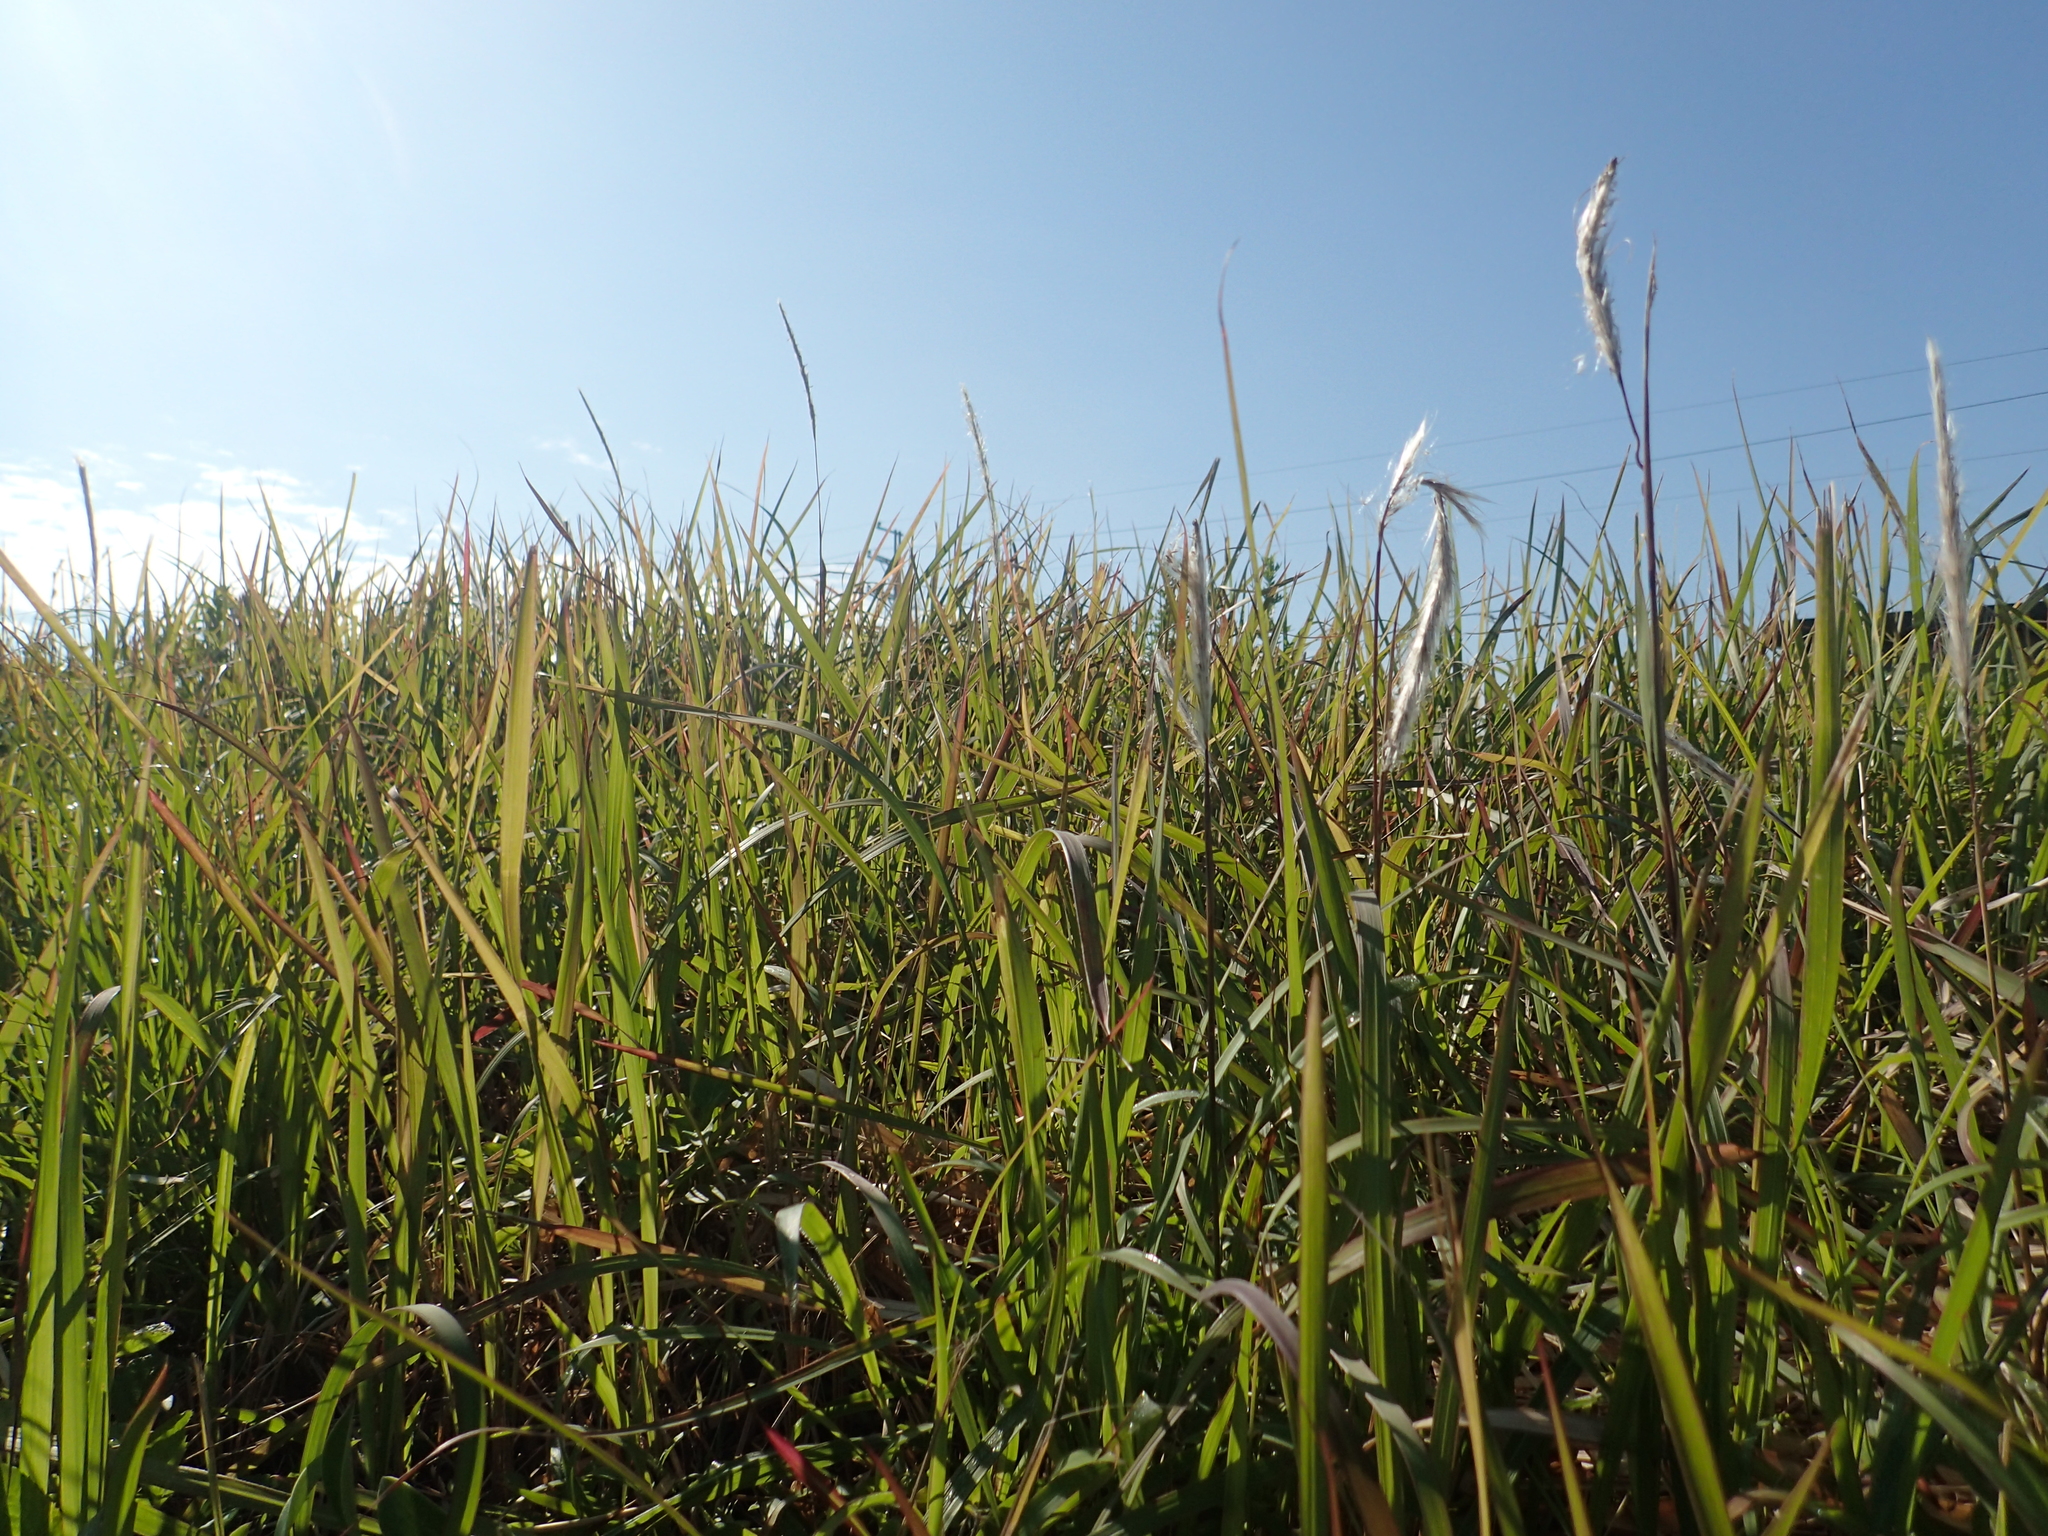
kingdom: Plantae
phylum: Tracheophyta
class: Liliopsida
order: Poales
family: Poaceae
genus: Imperata
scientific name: Imperata cylindrica
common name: Cogongrass
